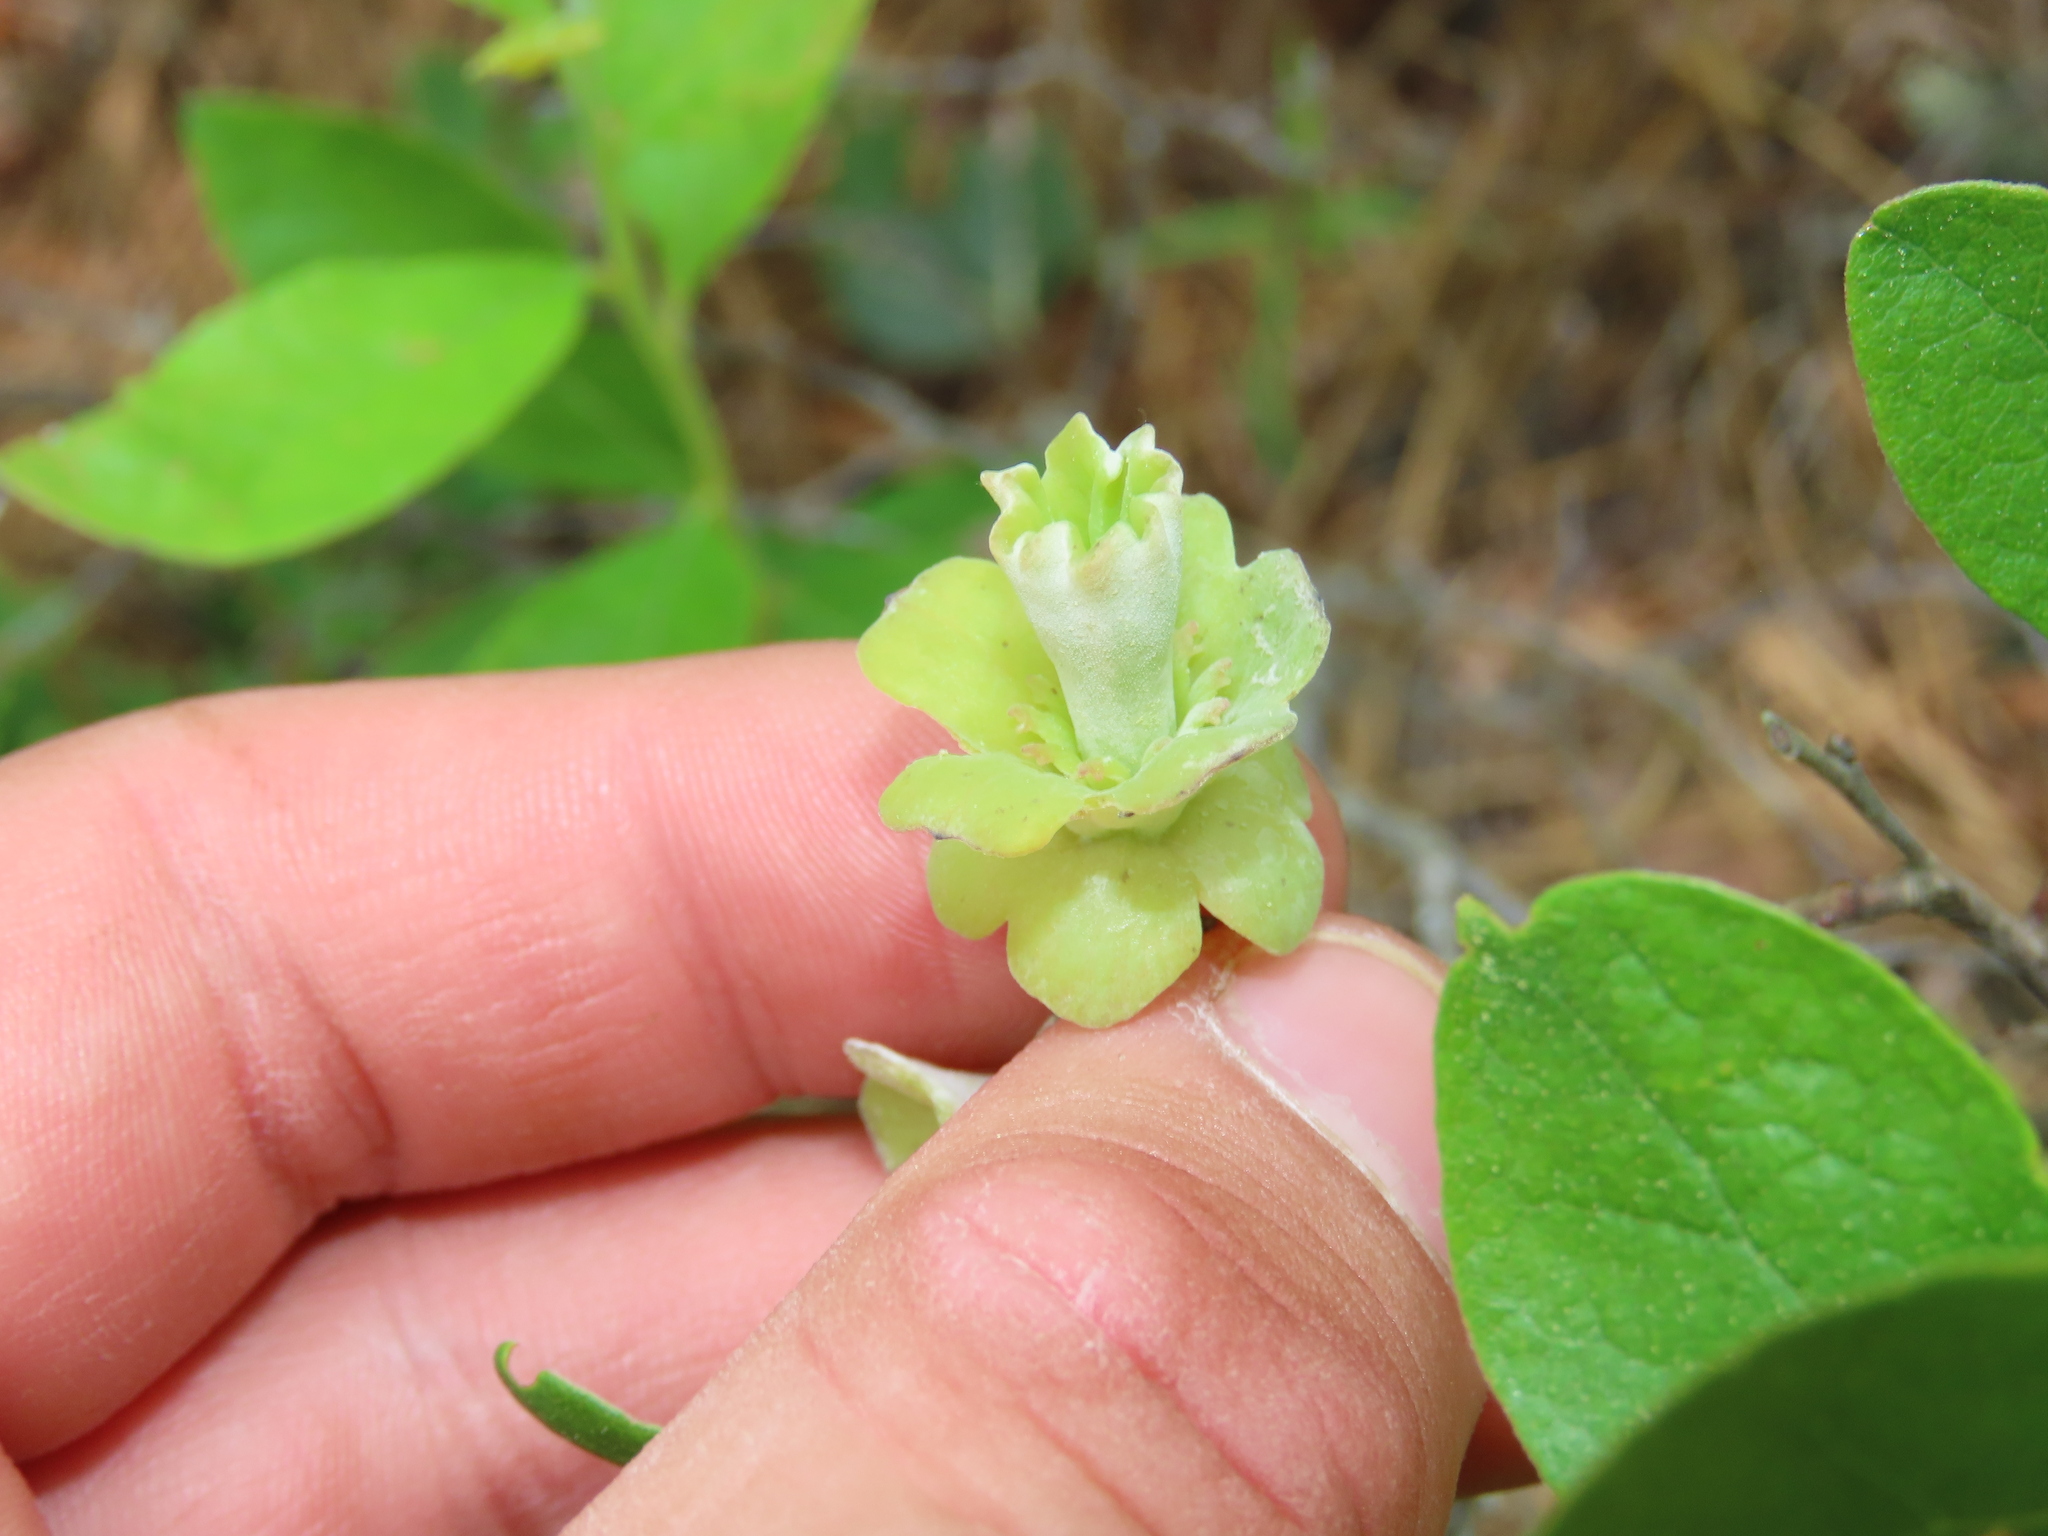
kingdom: Plantae
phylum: Tracheophyta
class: Magnoliopsida
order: Ericales
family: Ericaceae
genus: Gaylussacia
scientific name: Gaylussacia frondosa
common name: Dangleberry
